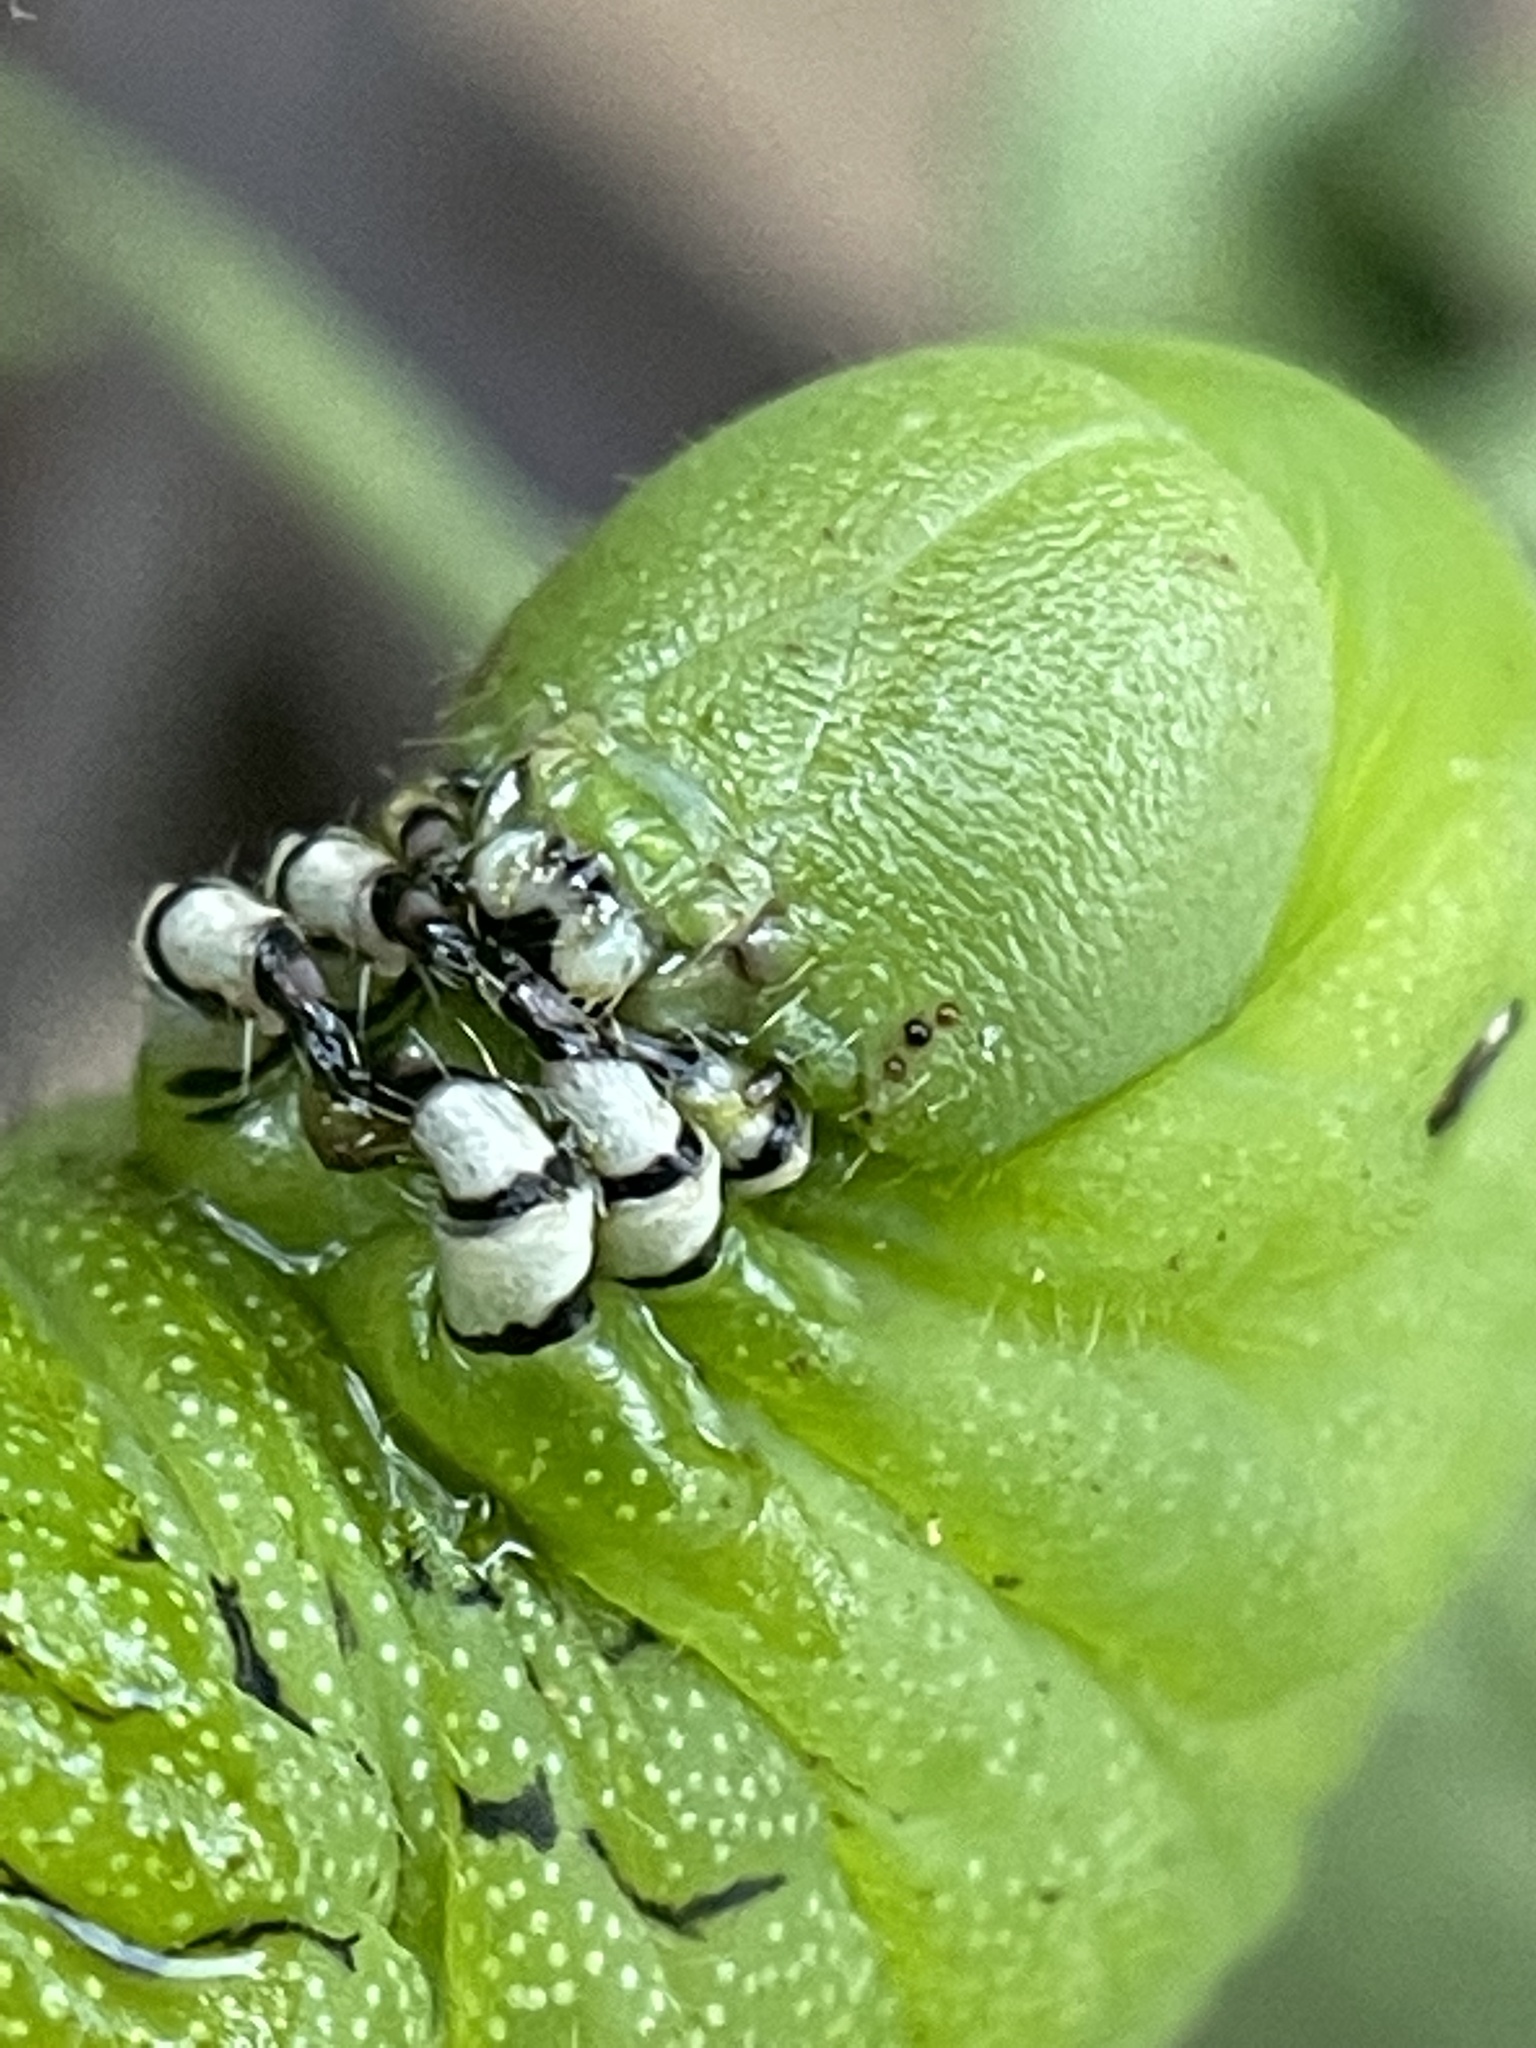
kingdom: Animalia
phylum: Arthropoda
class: Insecta
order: Lepidoptera
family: Sphingidae
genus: Manduca
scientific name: Manduca sexta
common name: Carolina sphinx
